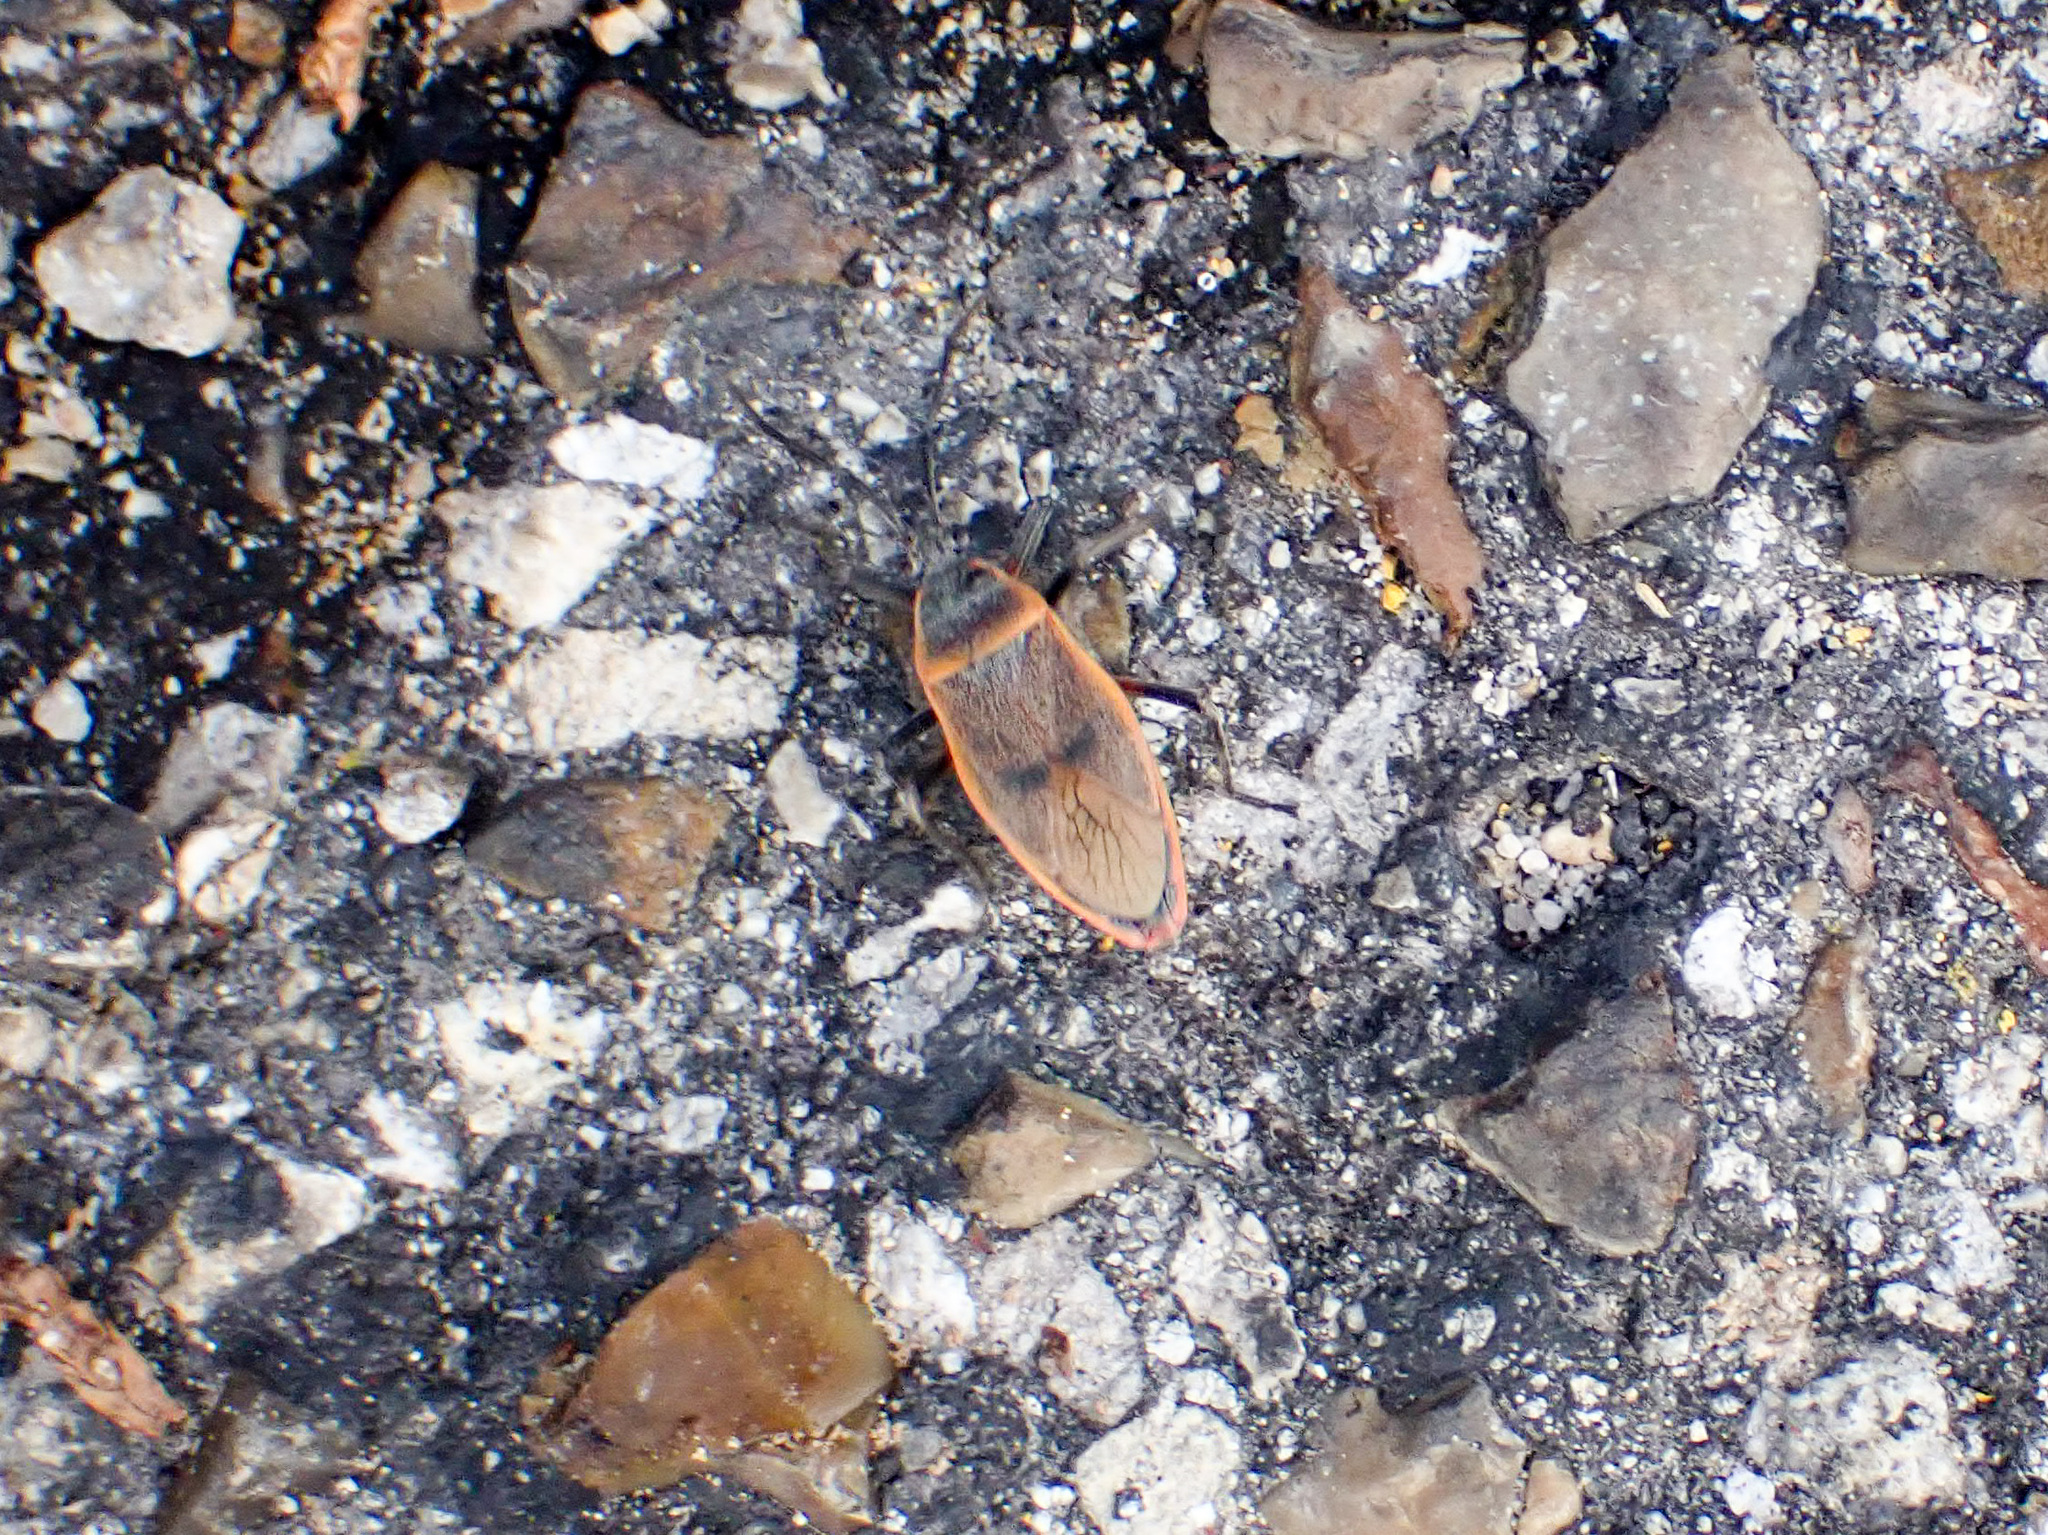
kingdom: Animalia
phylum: Arthropoda
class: Insecta
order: Hemiptera
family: Largidae
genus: Largus
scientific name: Largus maculatus
